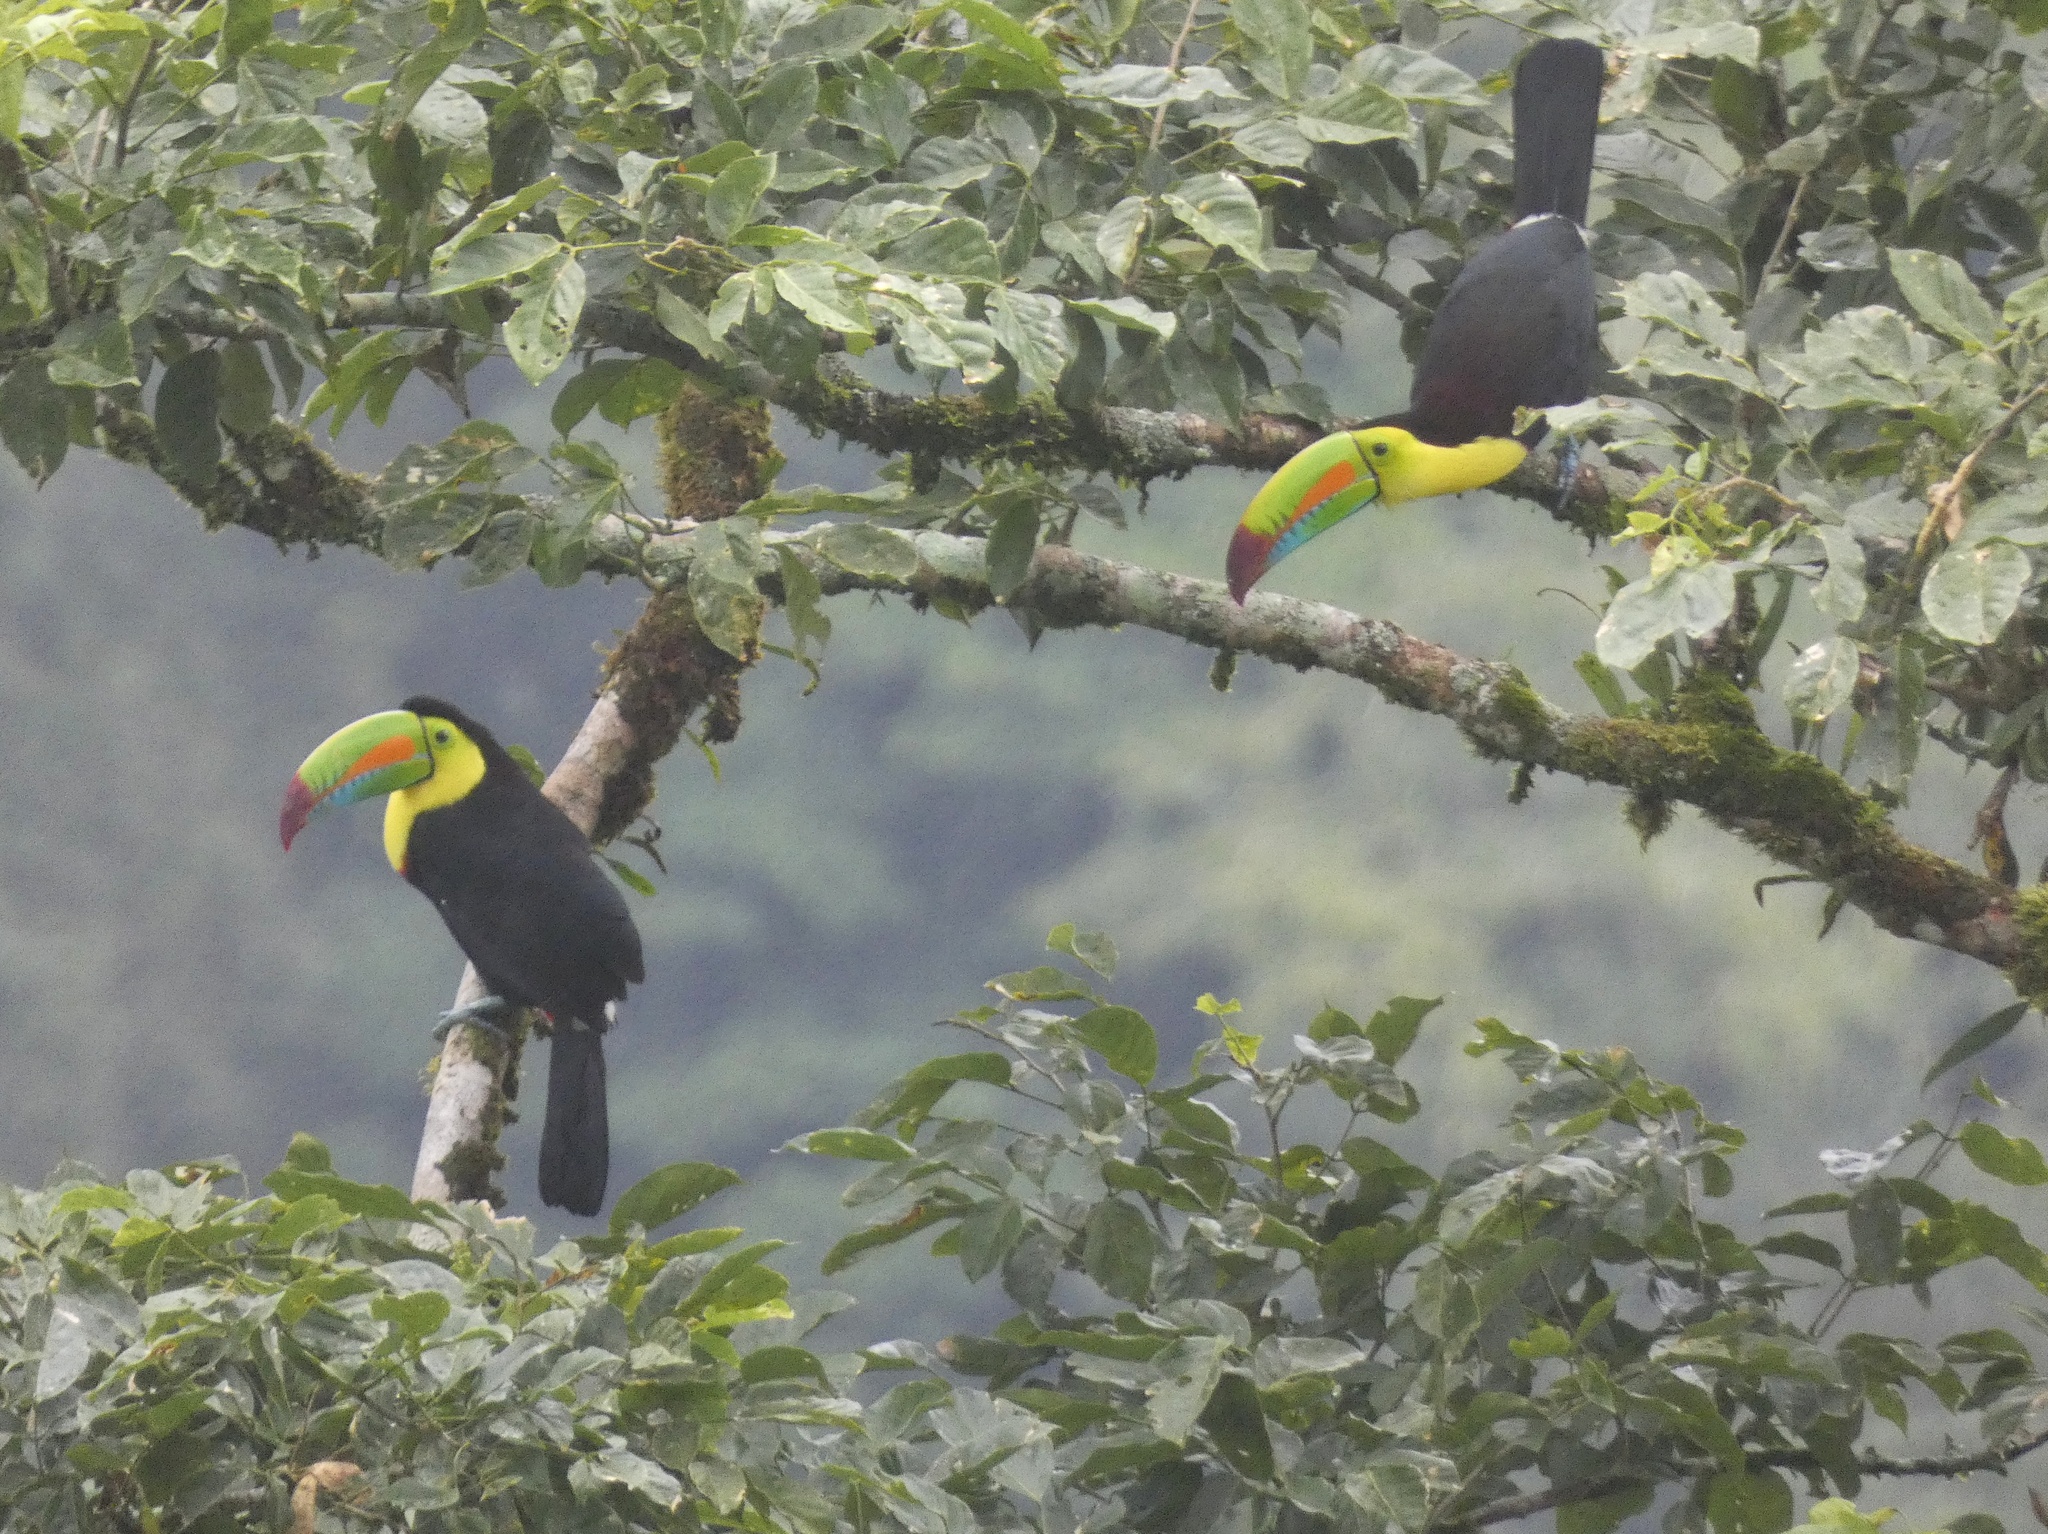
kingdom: Animalia
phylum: Chordata
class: Aves
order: Piciformes
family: Ramphastidae
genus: Ramphastos
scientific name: Ramphastos sulfuratus
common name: Keel-billed toucan
